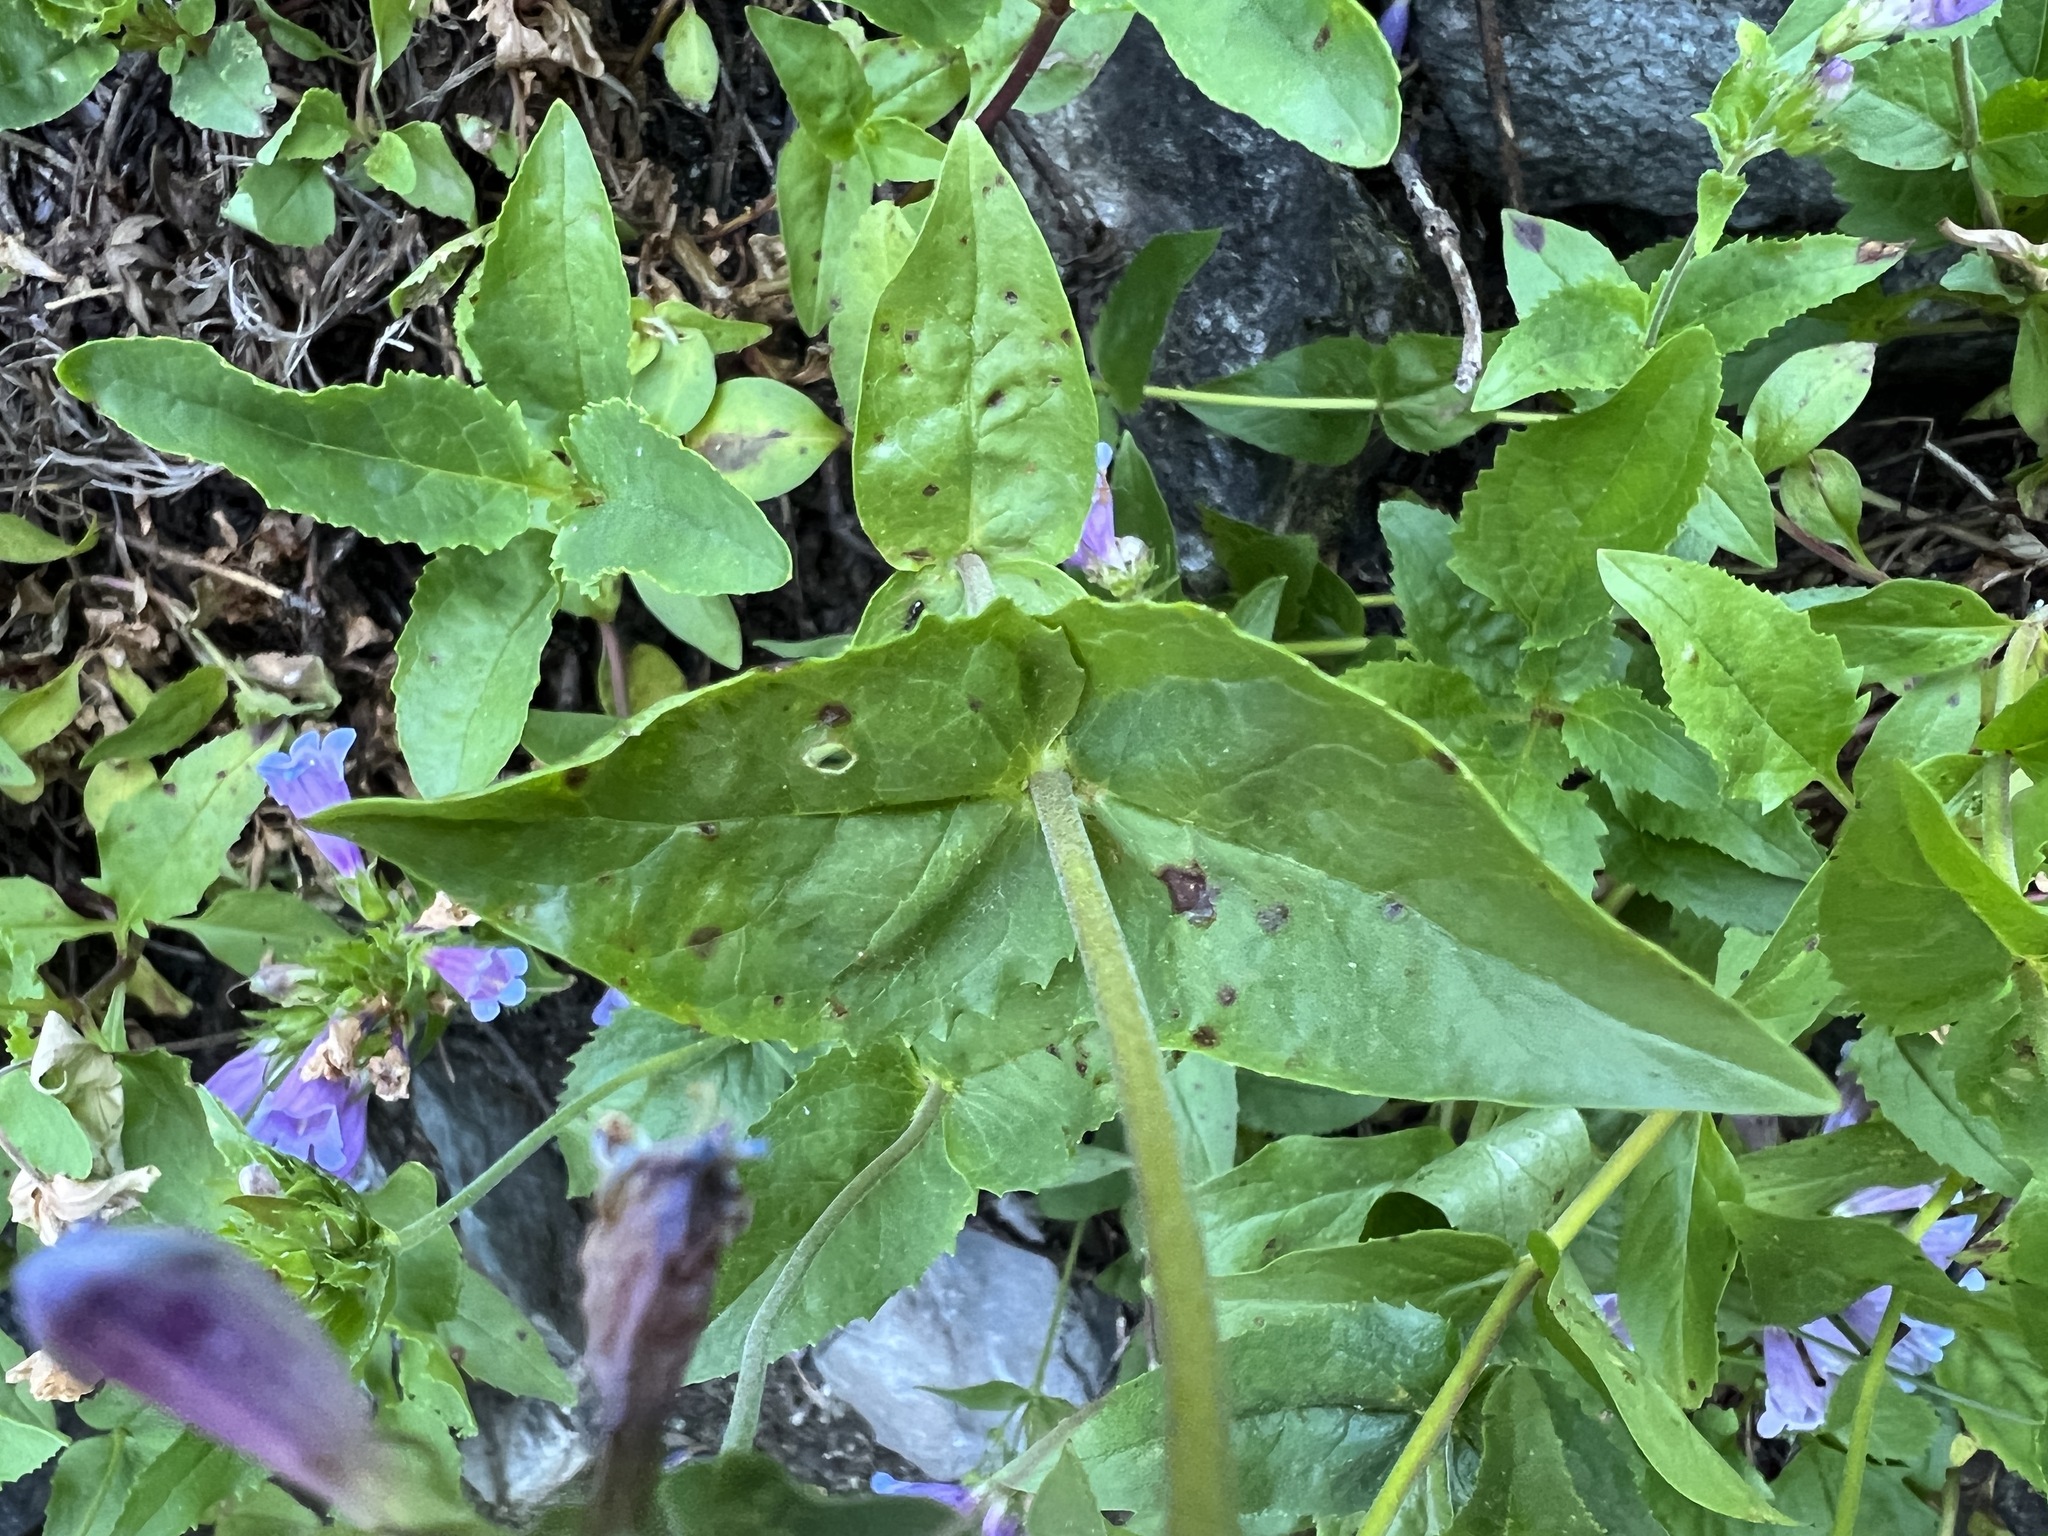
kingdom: Plantae
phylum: Tracheophyta
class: Magnoliopsida
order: Lamiales
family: Plantaginaceae
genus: Penstemon
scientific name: Penstemon serrulatus
